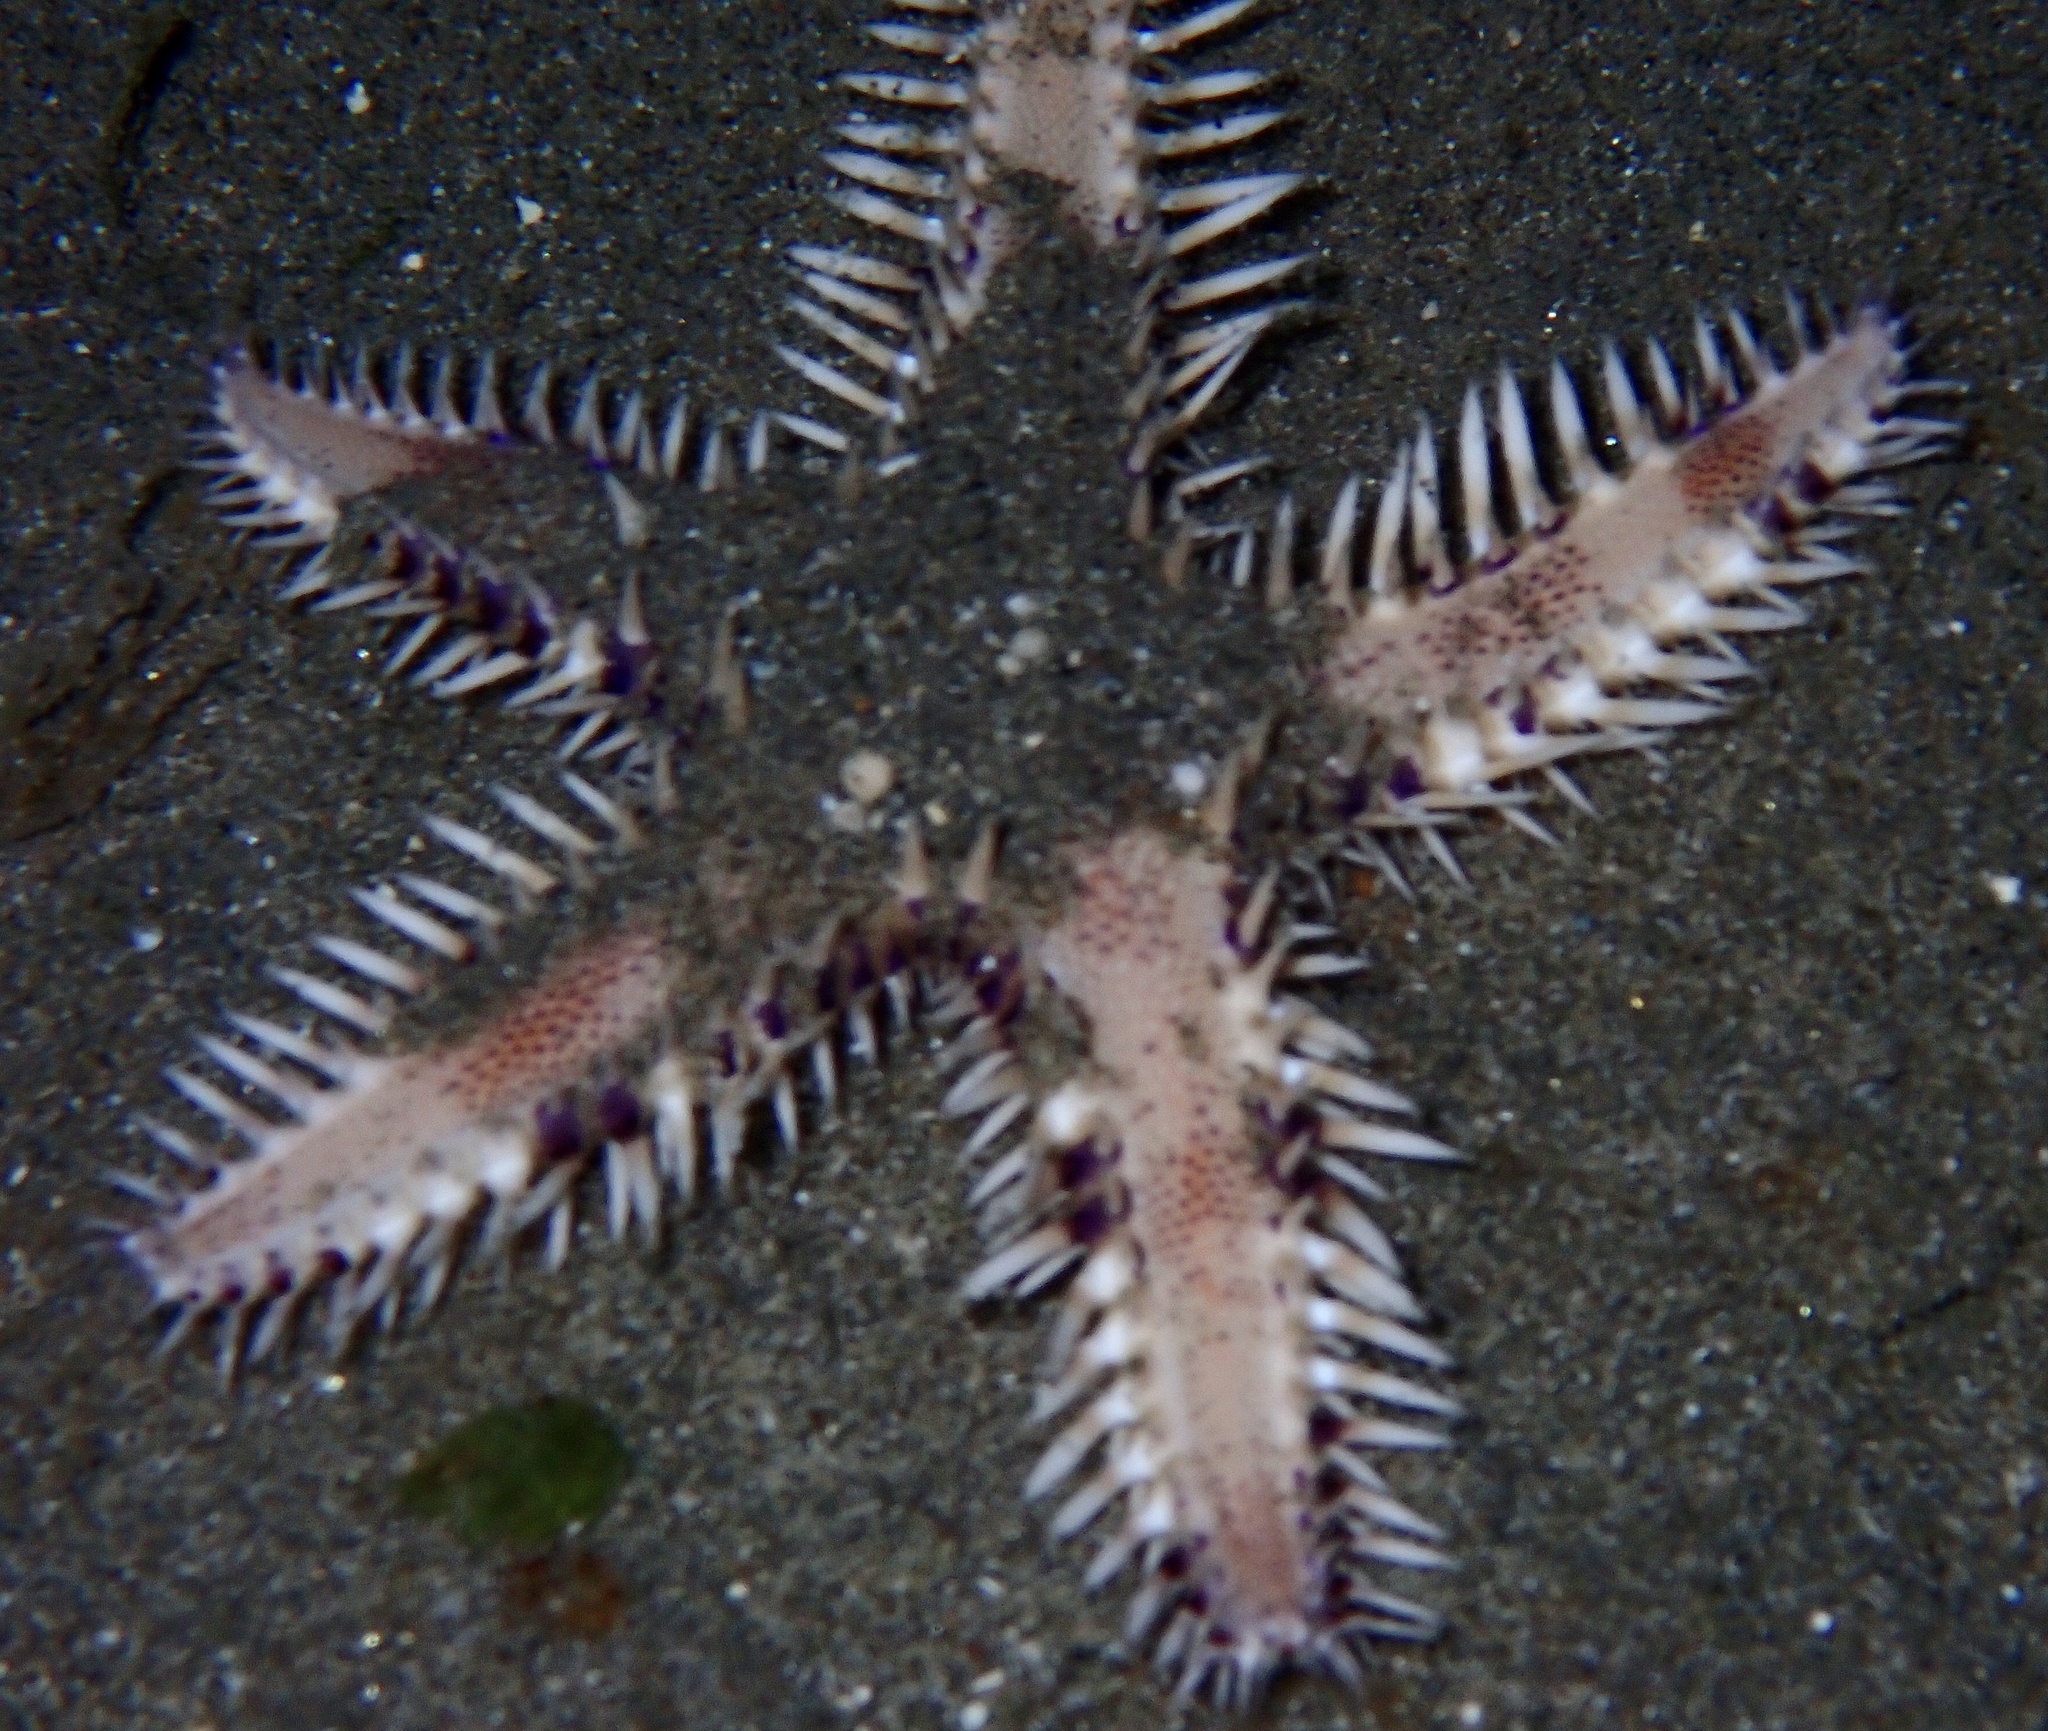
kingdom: Animalia
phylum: Echinodermata
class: Asteroidea
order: Paxillosida
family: Astropectinidae
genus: Astropecten
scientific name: Astropecten polyacanthus
